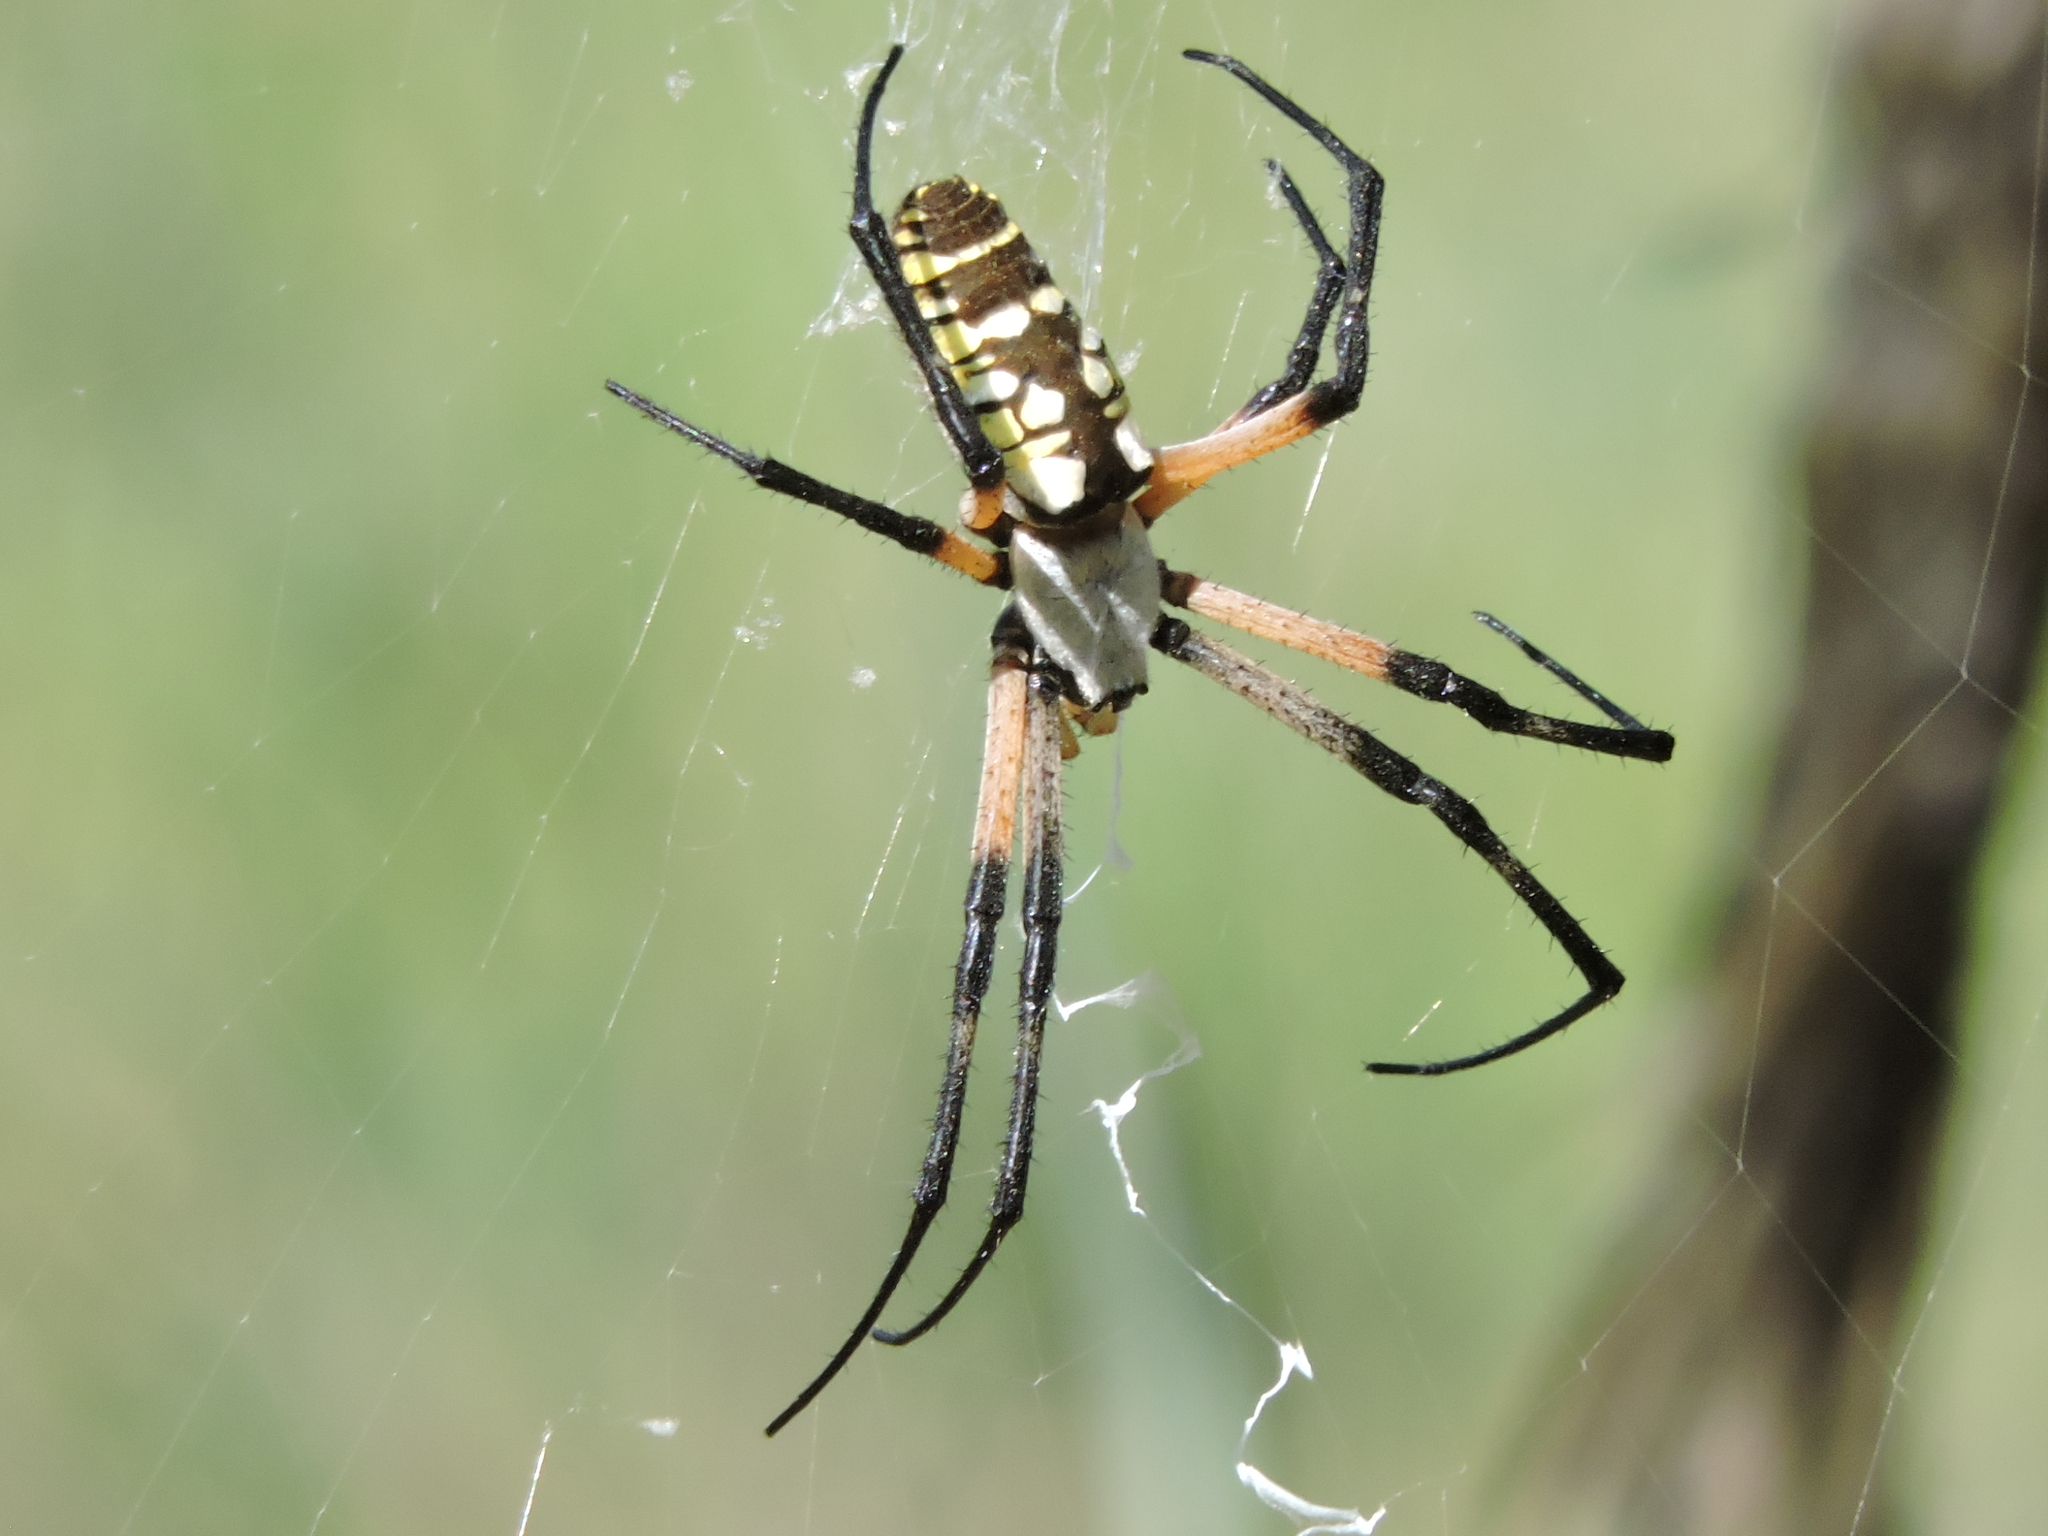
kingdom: Animalia
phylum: Arthropoda
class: Arachnida
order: Araneae
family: Araneidae
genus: Argiope
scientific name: Argiope aurantia
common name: Orb weavers
